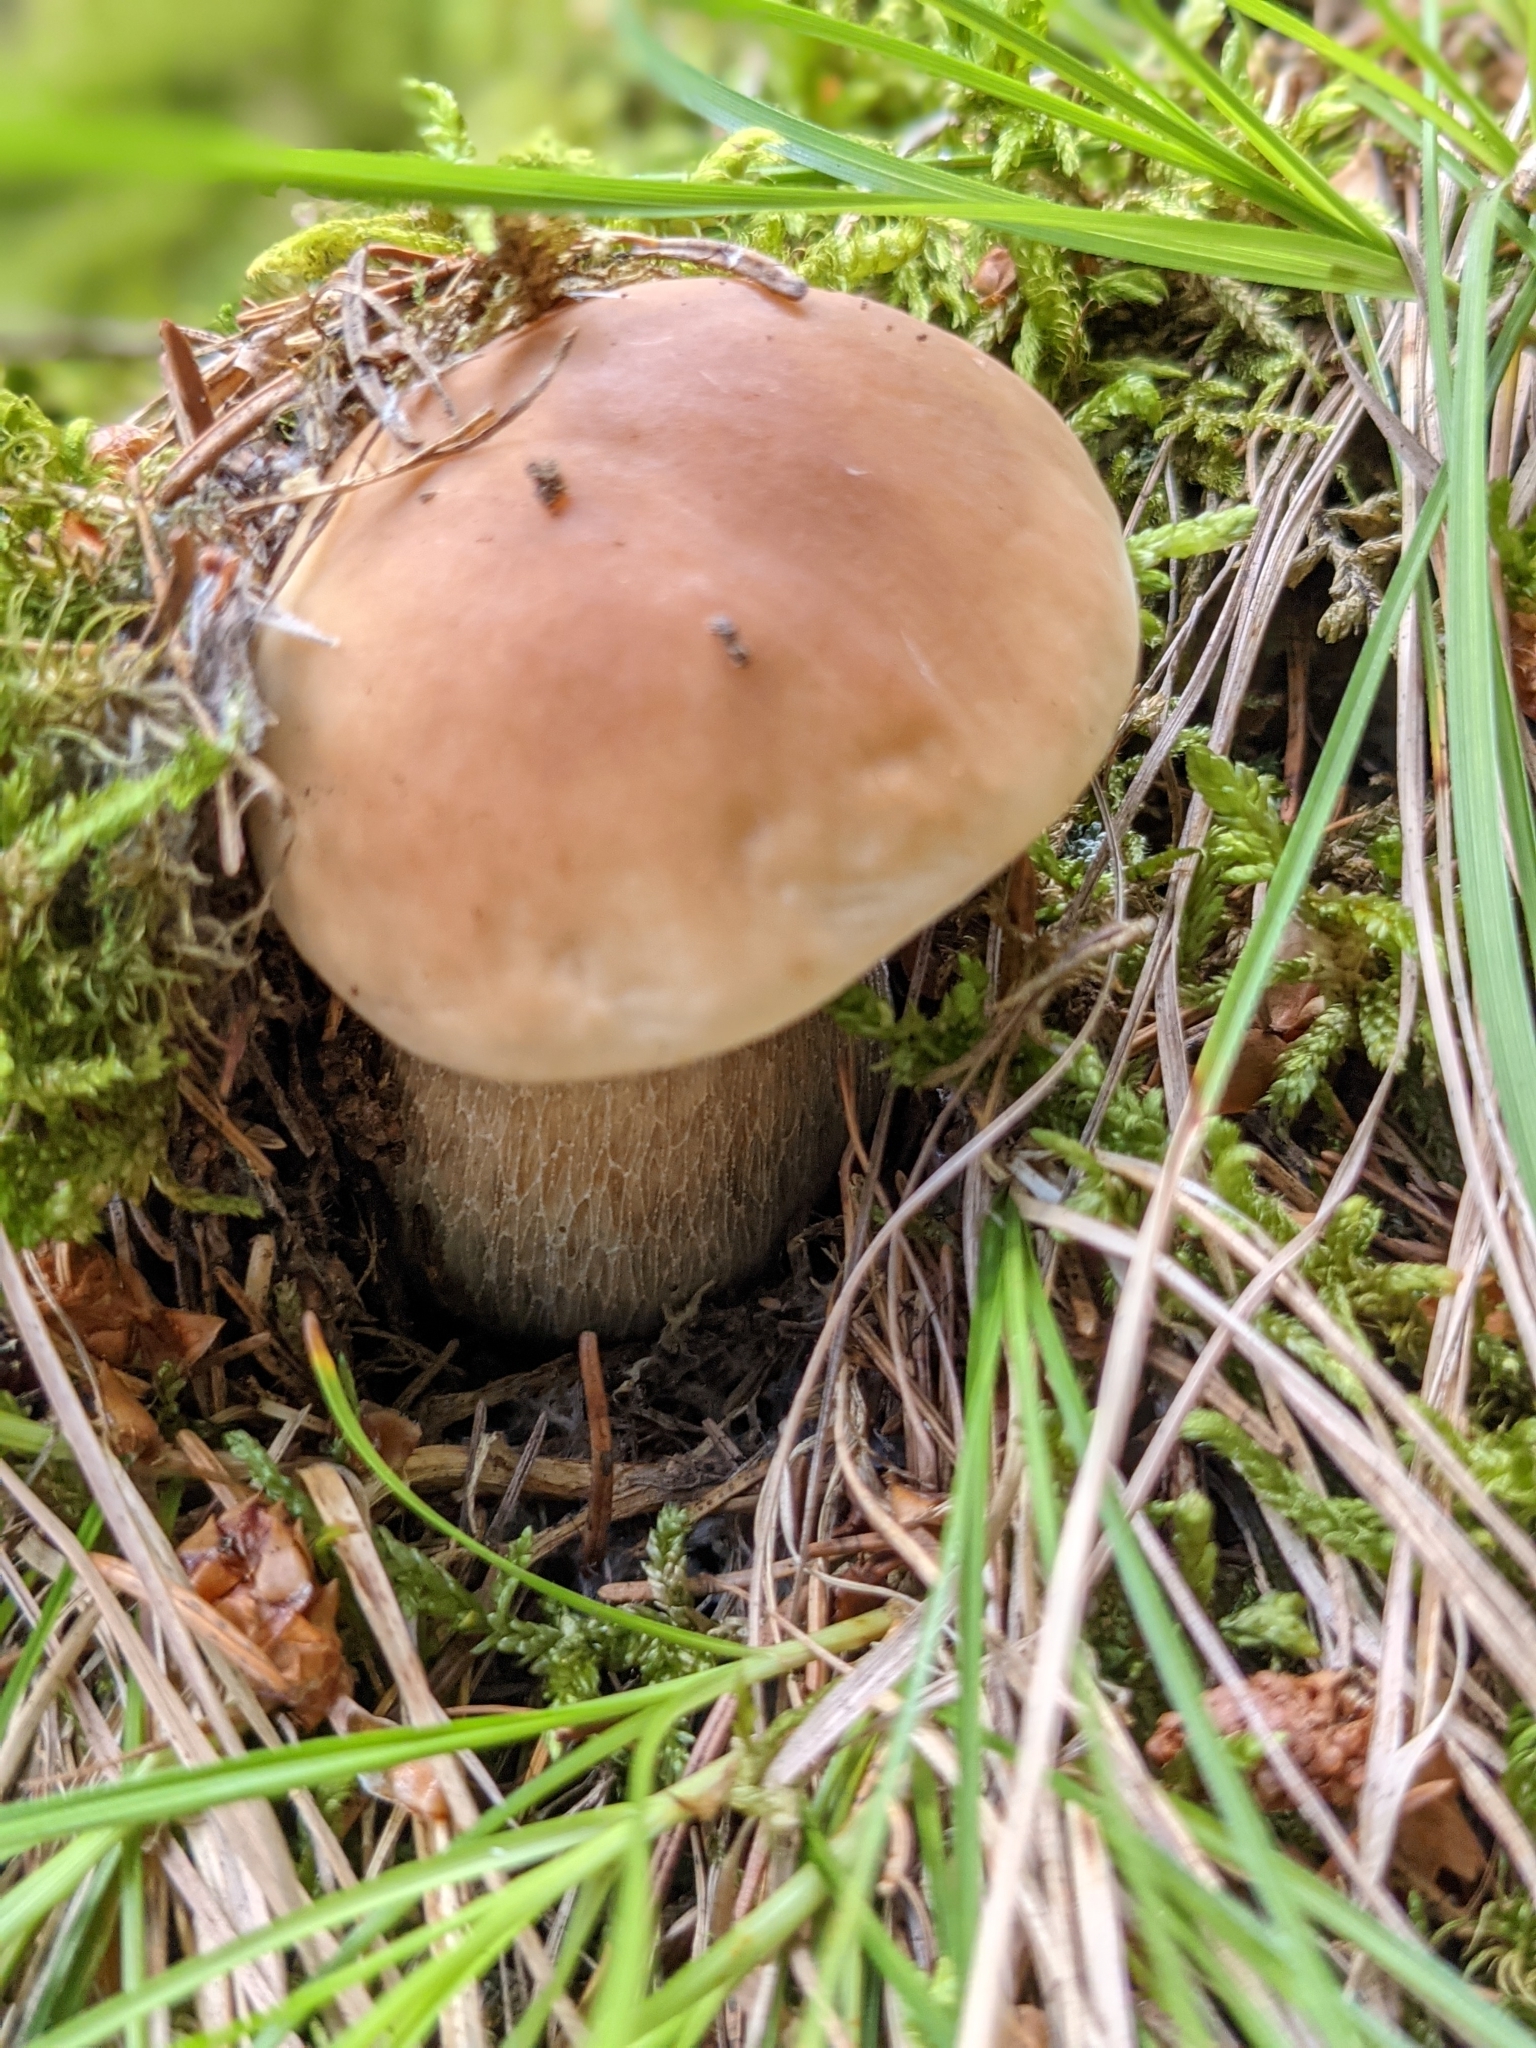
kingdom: Fungi
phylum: Basidiomycota
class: Agaricomycetes
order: Boletales
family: Boletaceae
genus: Boletus
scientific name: Boletus edulis
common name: Cep
